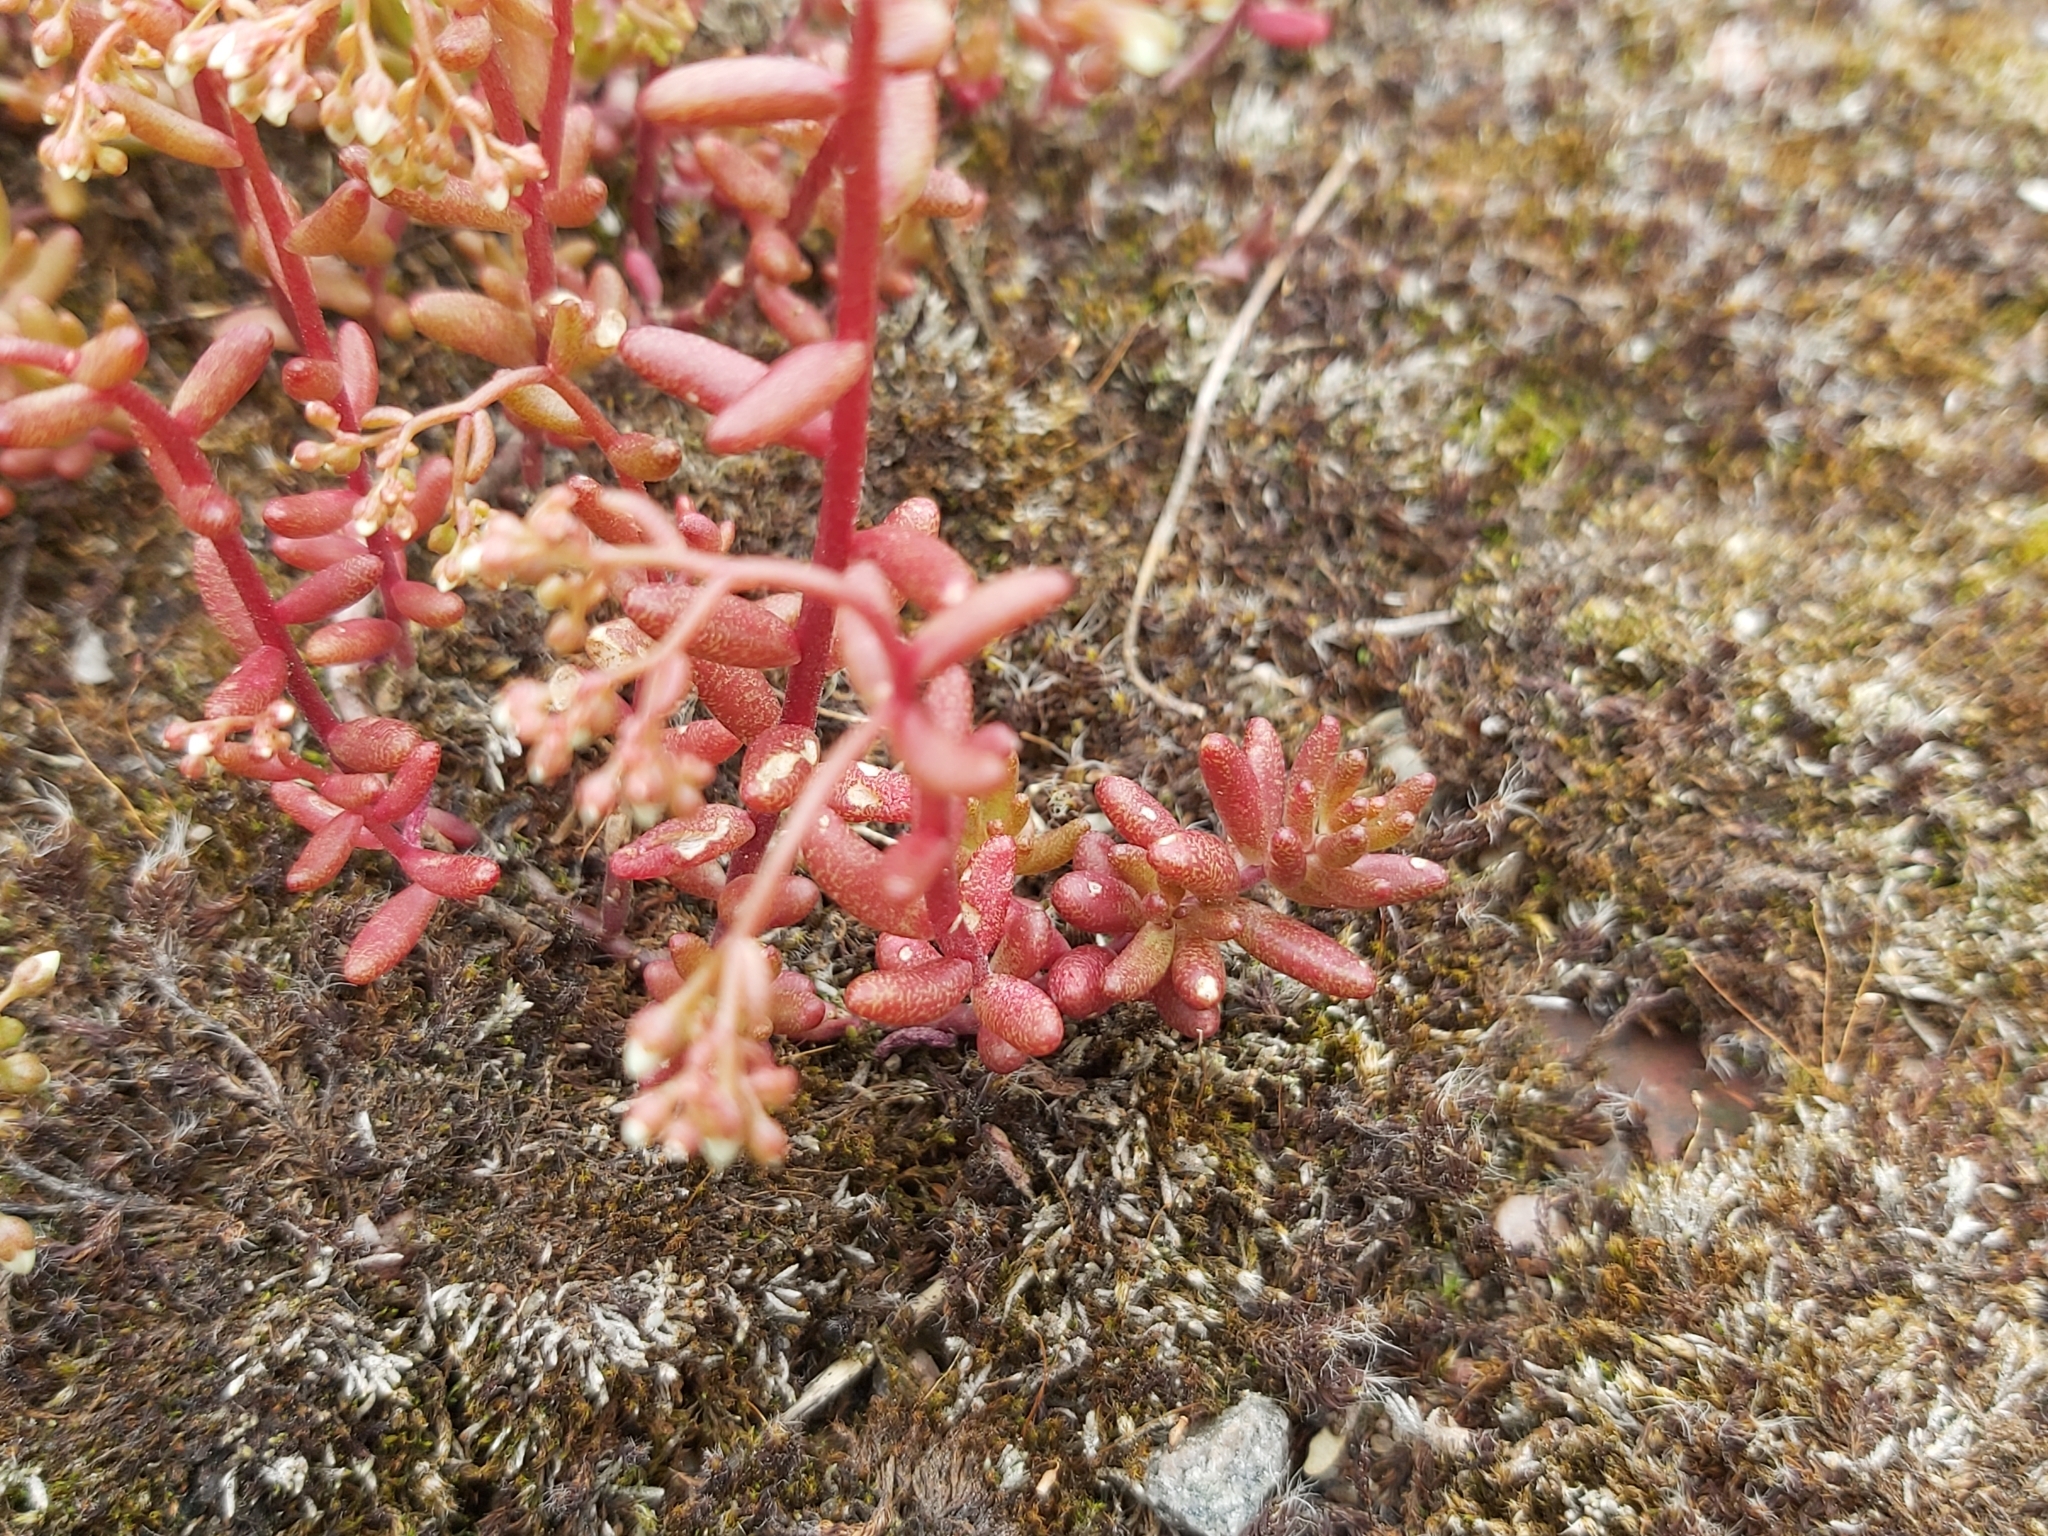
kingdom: Plantae
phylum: Tracheophyta
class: Magnoliopsida
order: Saxifragales
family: Crassulaceae
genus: Sedum
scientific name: Sedum album
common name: White stonecrop
